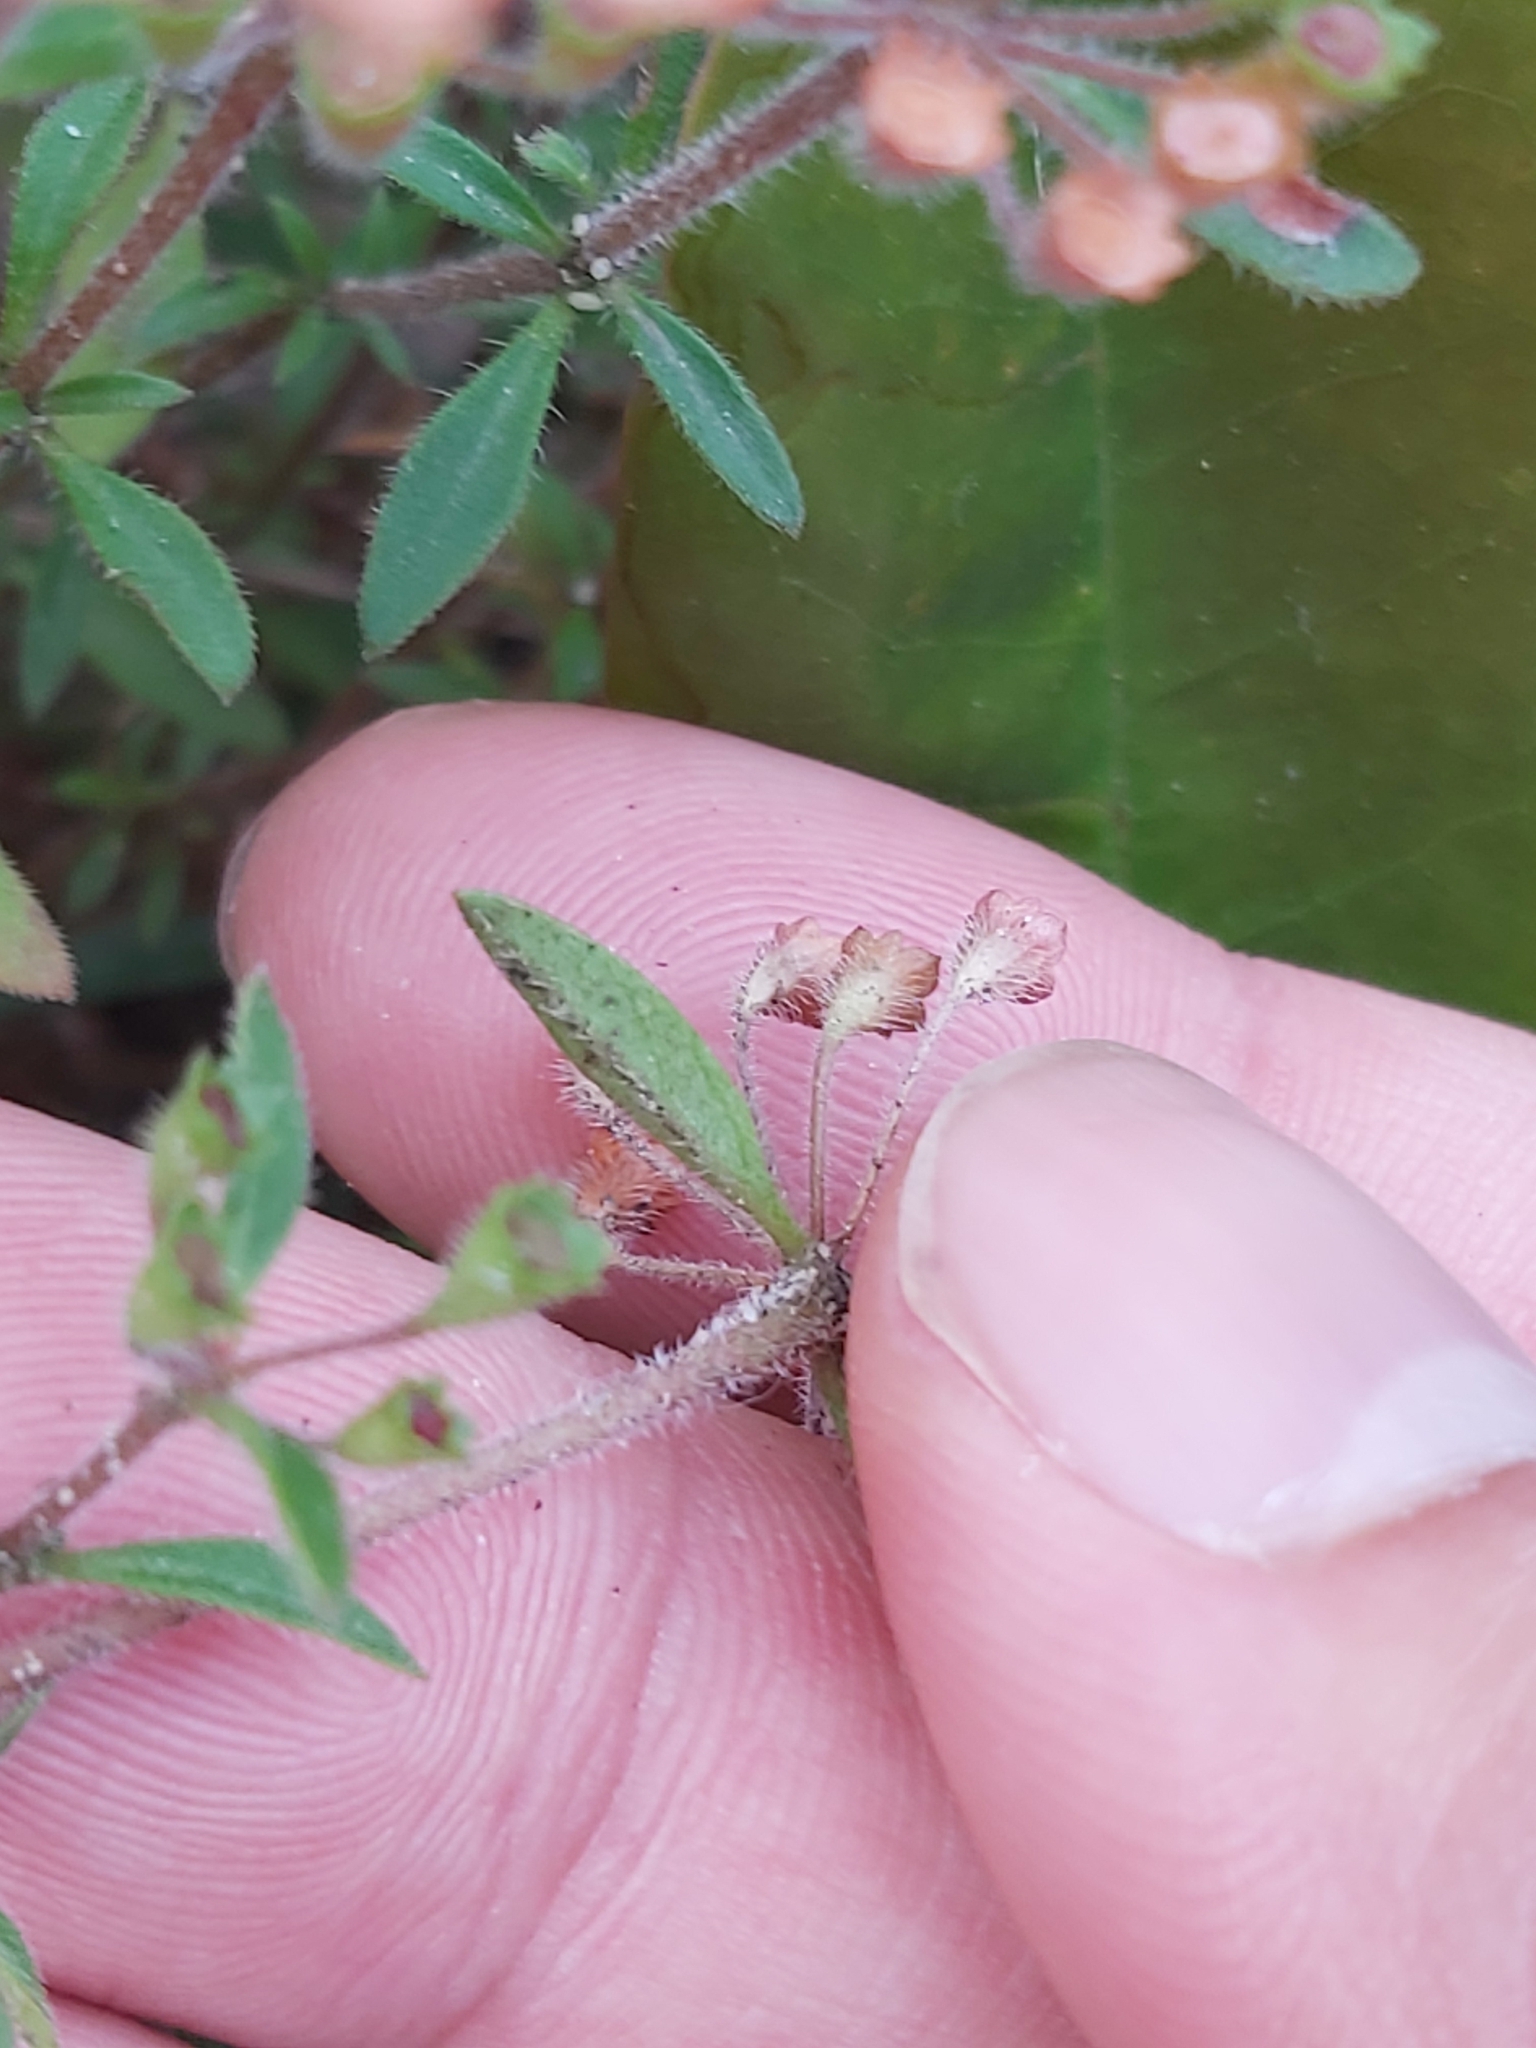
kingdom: Plantae
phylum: Tracheophyta
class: Magnoliopsida
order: Gentianales
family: Rubiaceae
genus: Pomax
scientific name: Pomax umbellata
